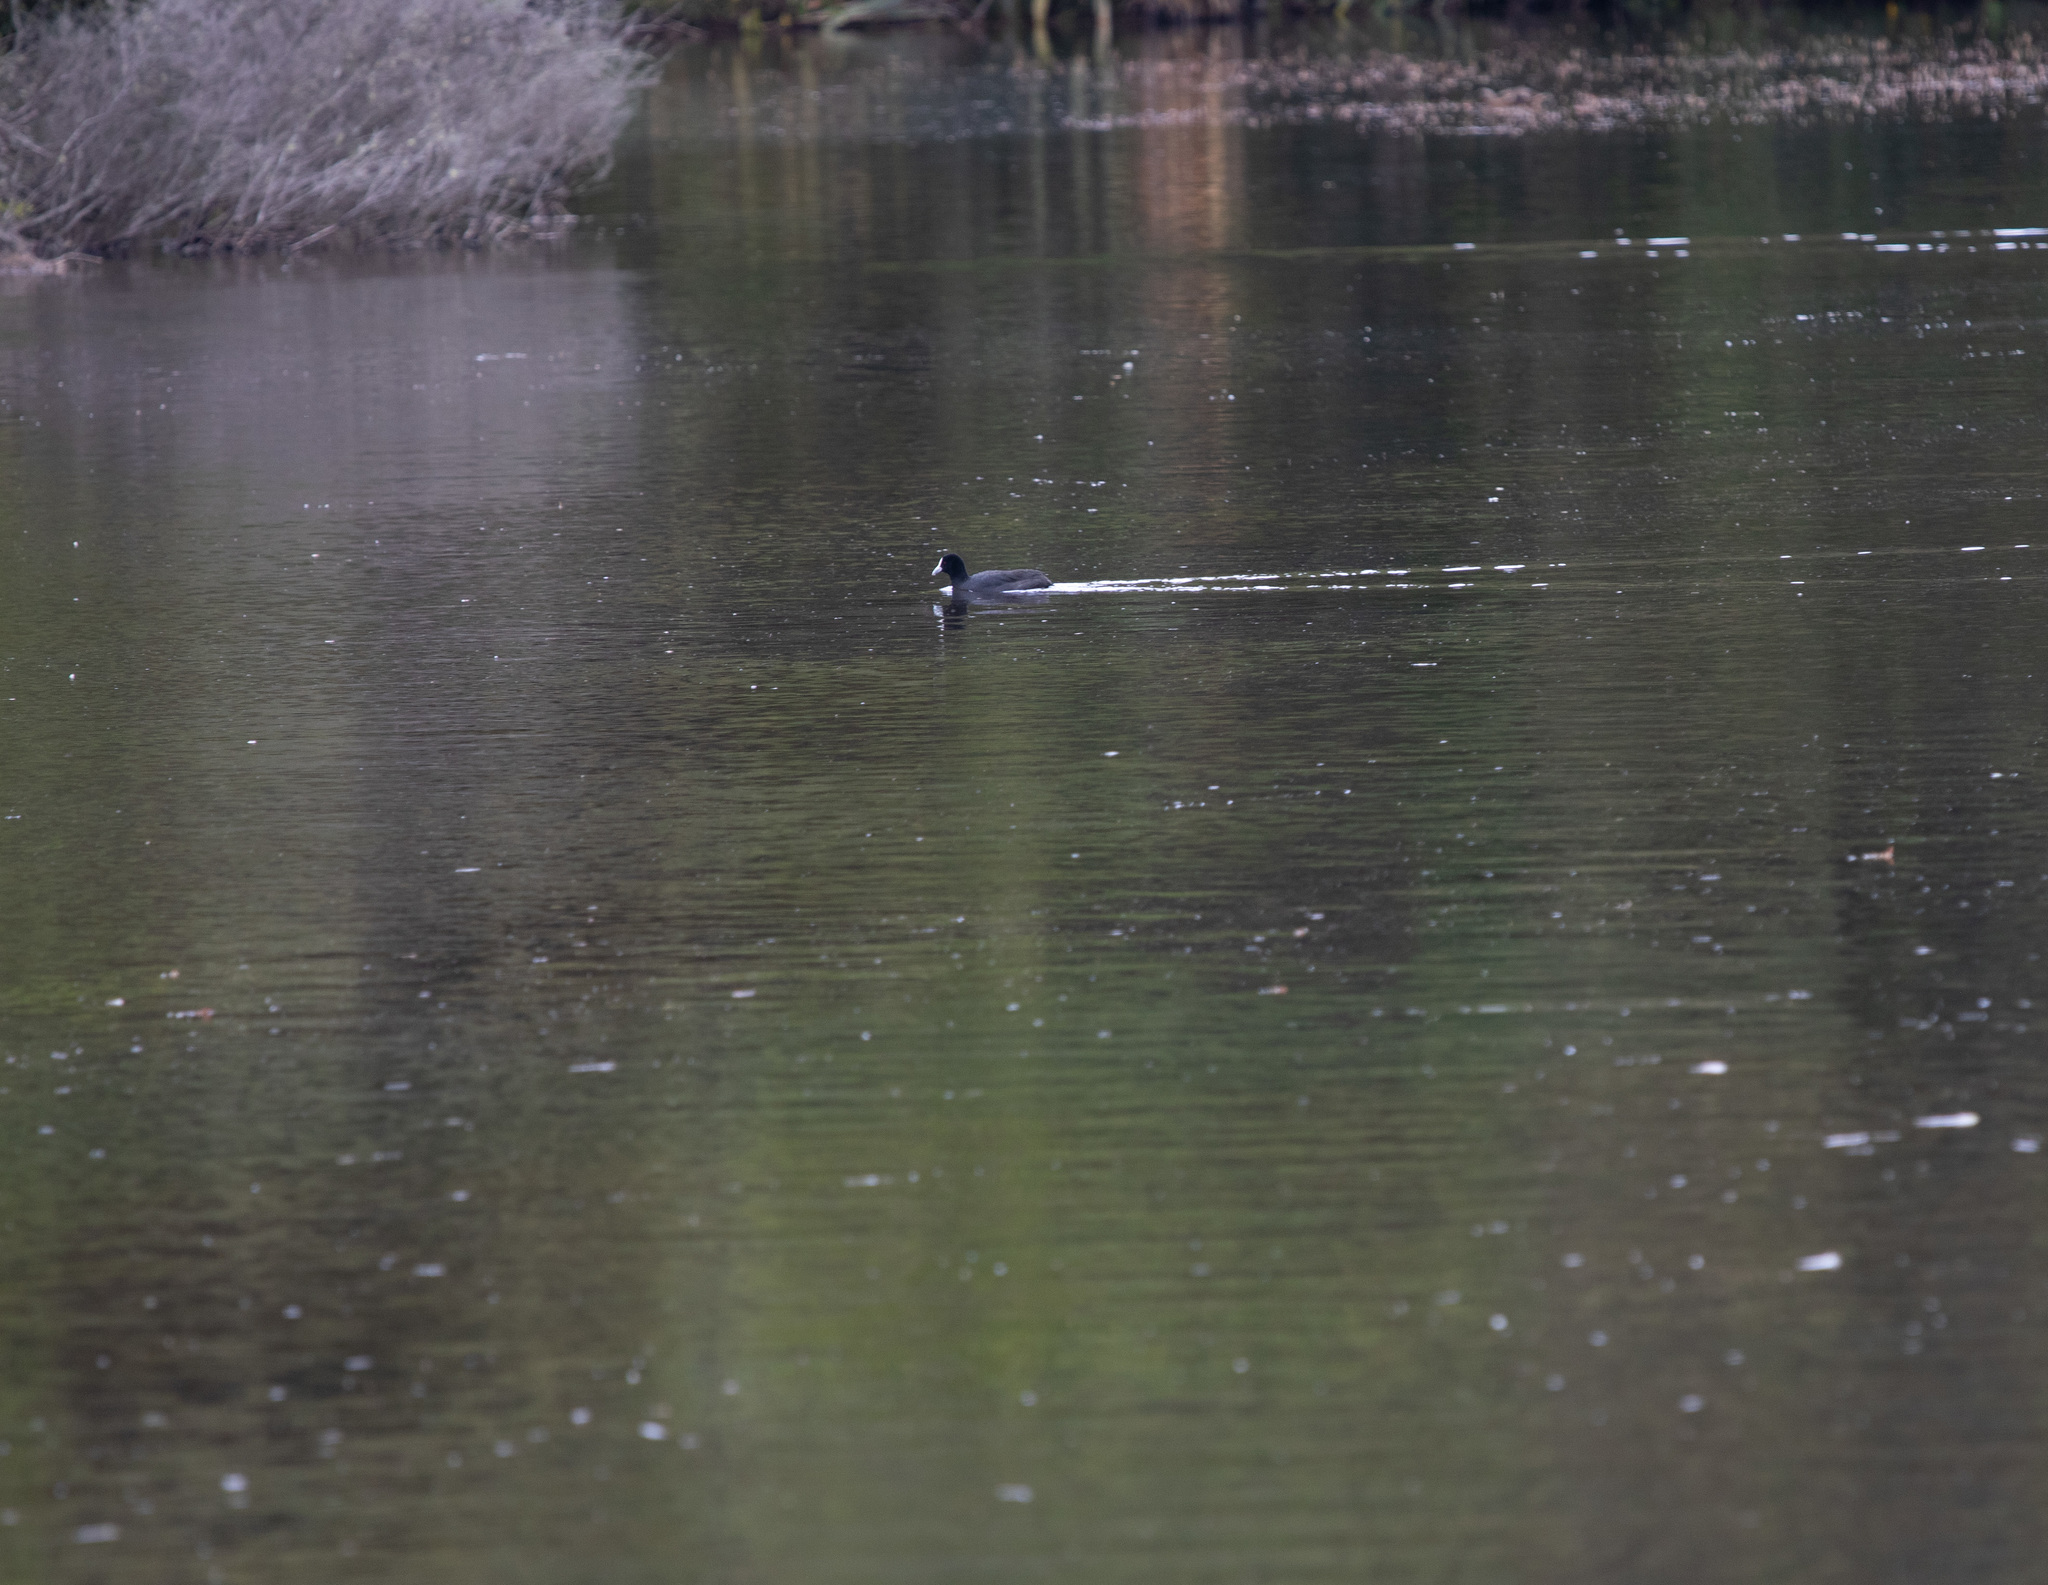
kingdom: Animalia
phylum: Chordata
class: Aves
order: Gruiformes
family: Rallidae
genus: Fulica
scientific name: Fulica atra
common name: Eurasian coot
